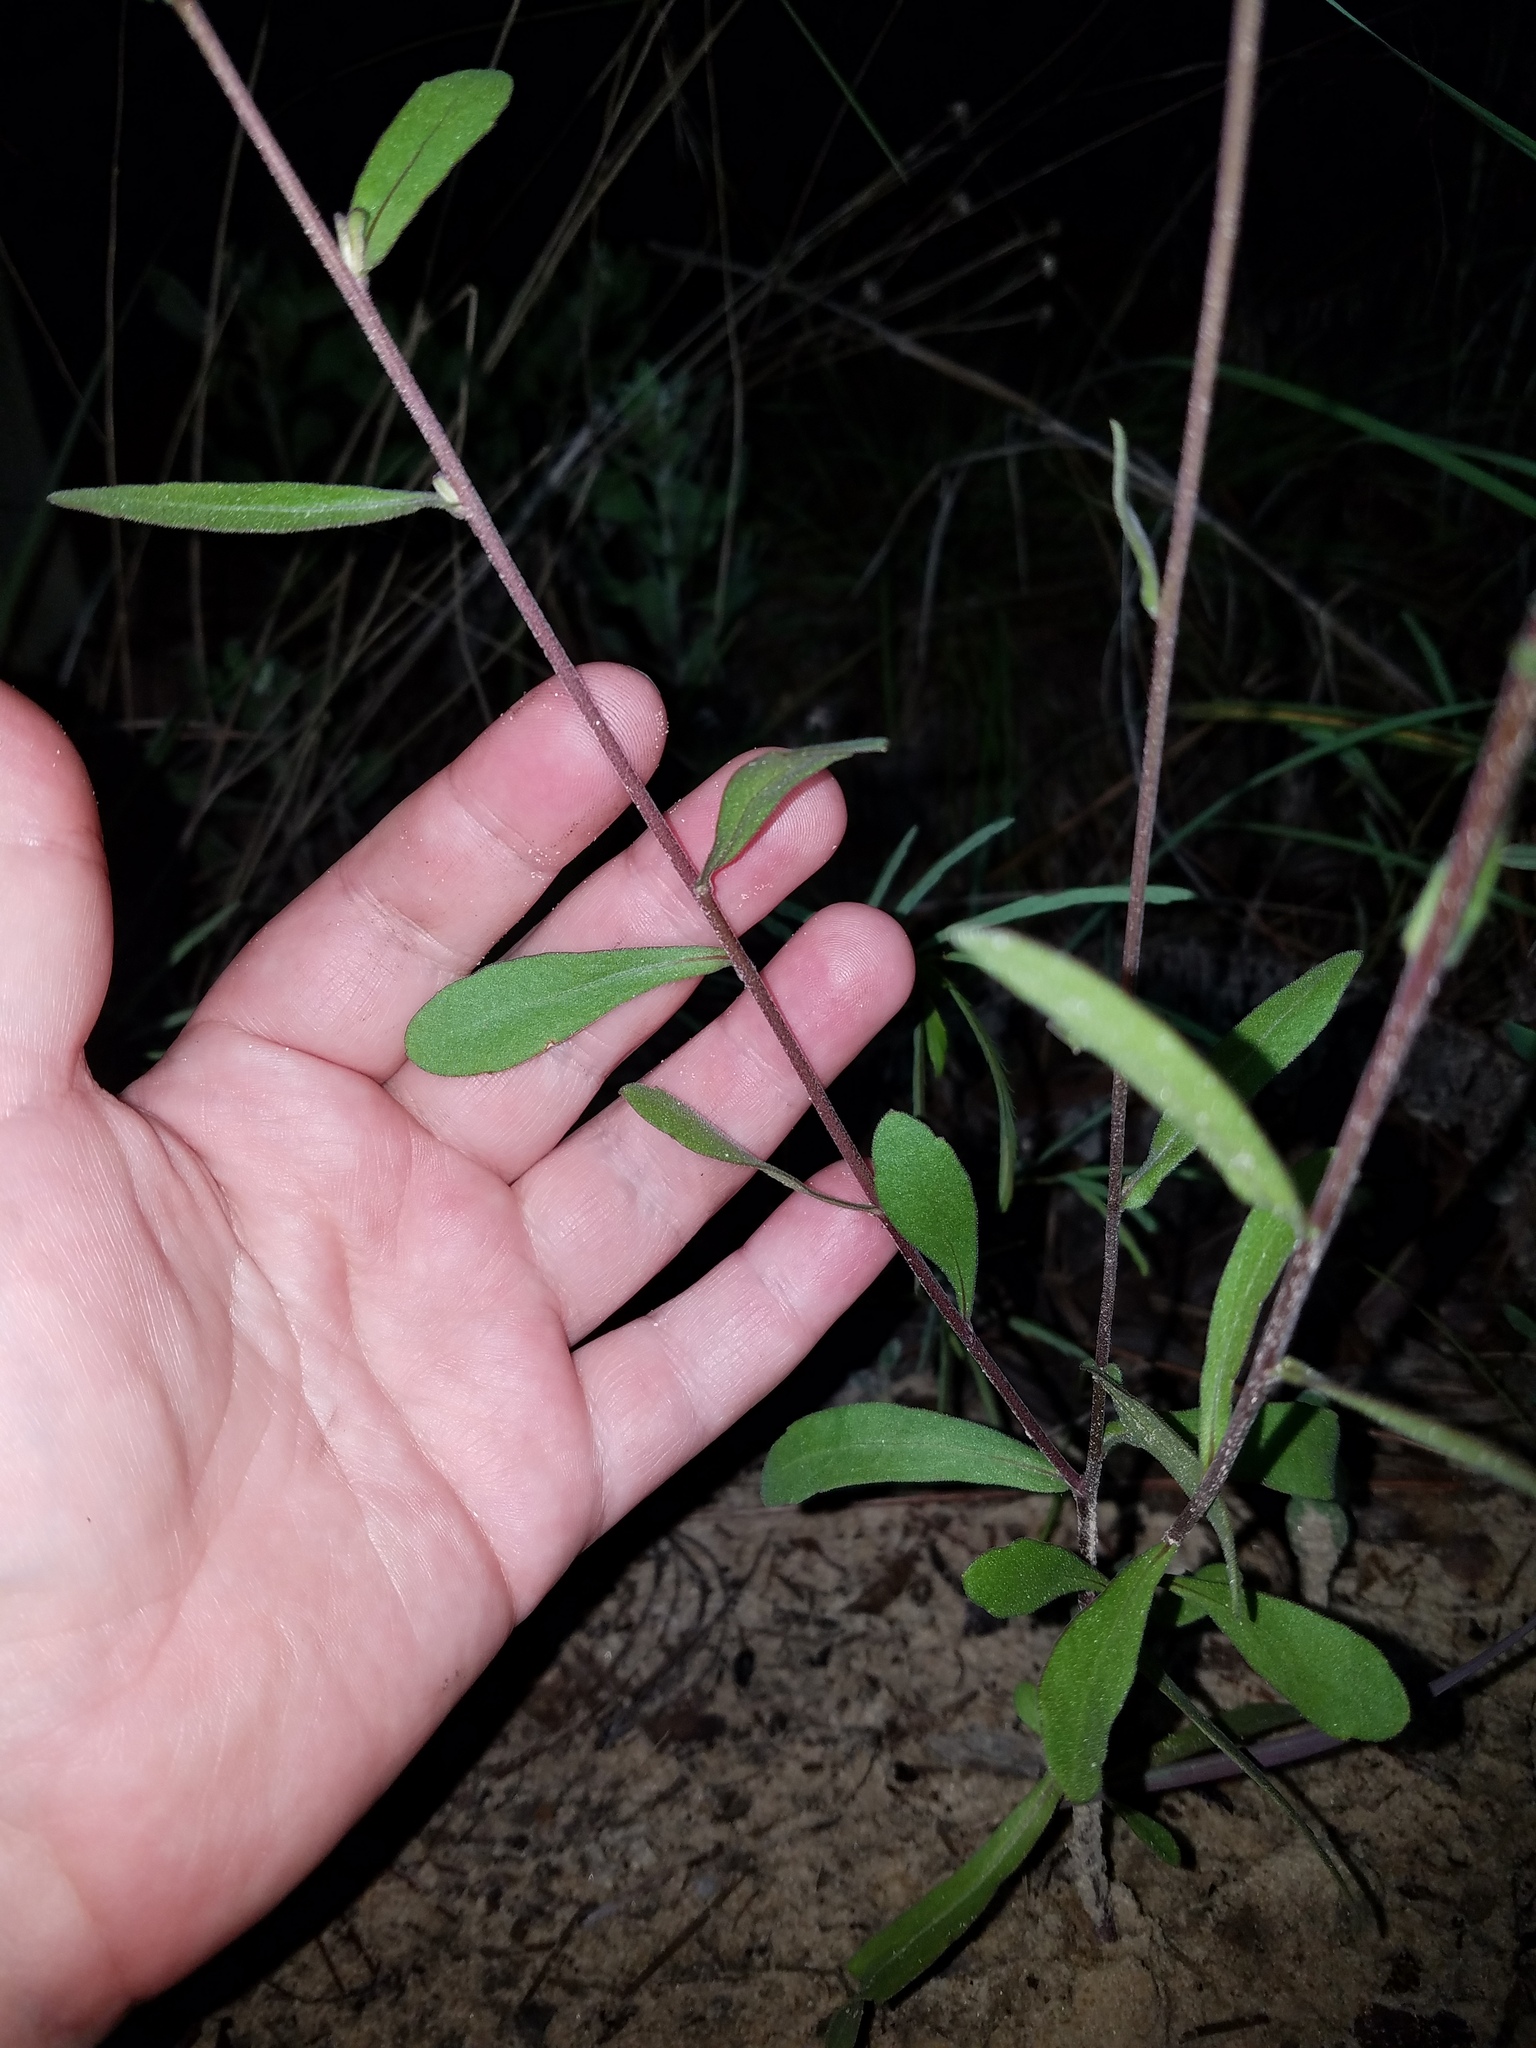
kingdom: Plantae
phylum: Tracheophyta
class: Magnoliopsida
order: Asterales
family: Asteraceae
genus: Gaillardia
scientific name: Gaillardia aestivalis
